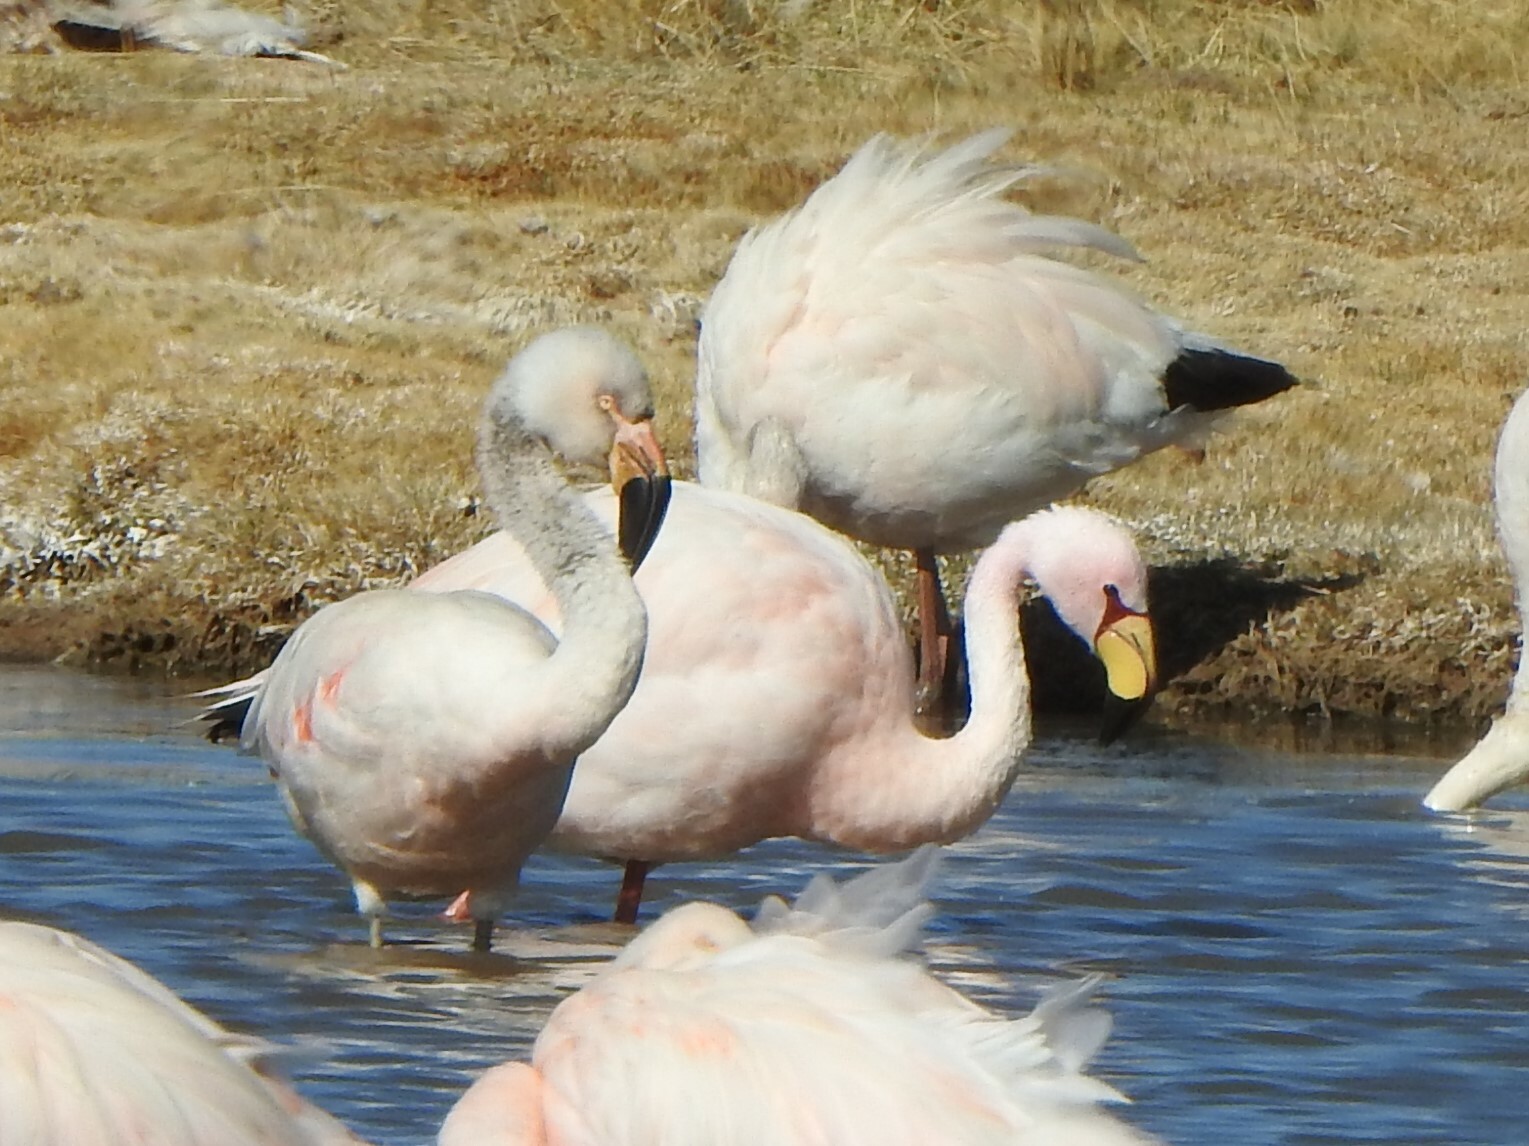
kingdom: Animalia
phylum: Chordata
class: Aves
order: Phoenicopteriformes
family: Phoenicopteridae
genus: Phoenicoparrus
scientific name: Phoenicoparrus jamesi
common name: James's flamingo
